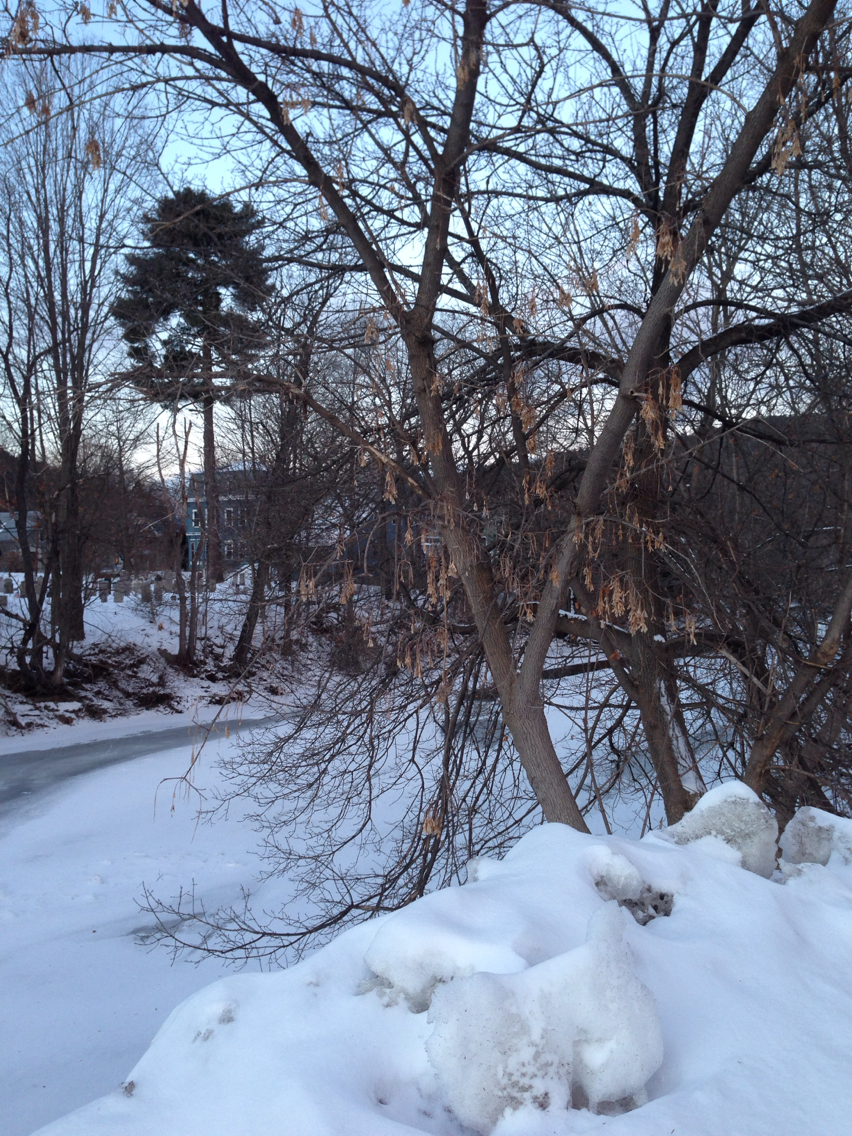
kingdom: Plantae
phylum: Tracheophyta
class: Magnoliopsida
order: Sapindales
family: Sapindaceae
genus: Acer
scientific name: Acer negundo
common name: Ashleaf maple
